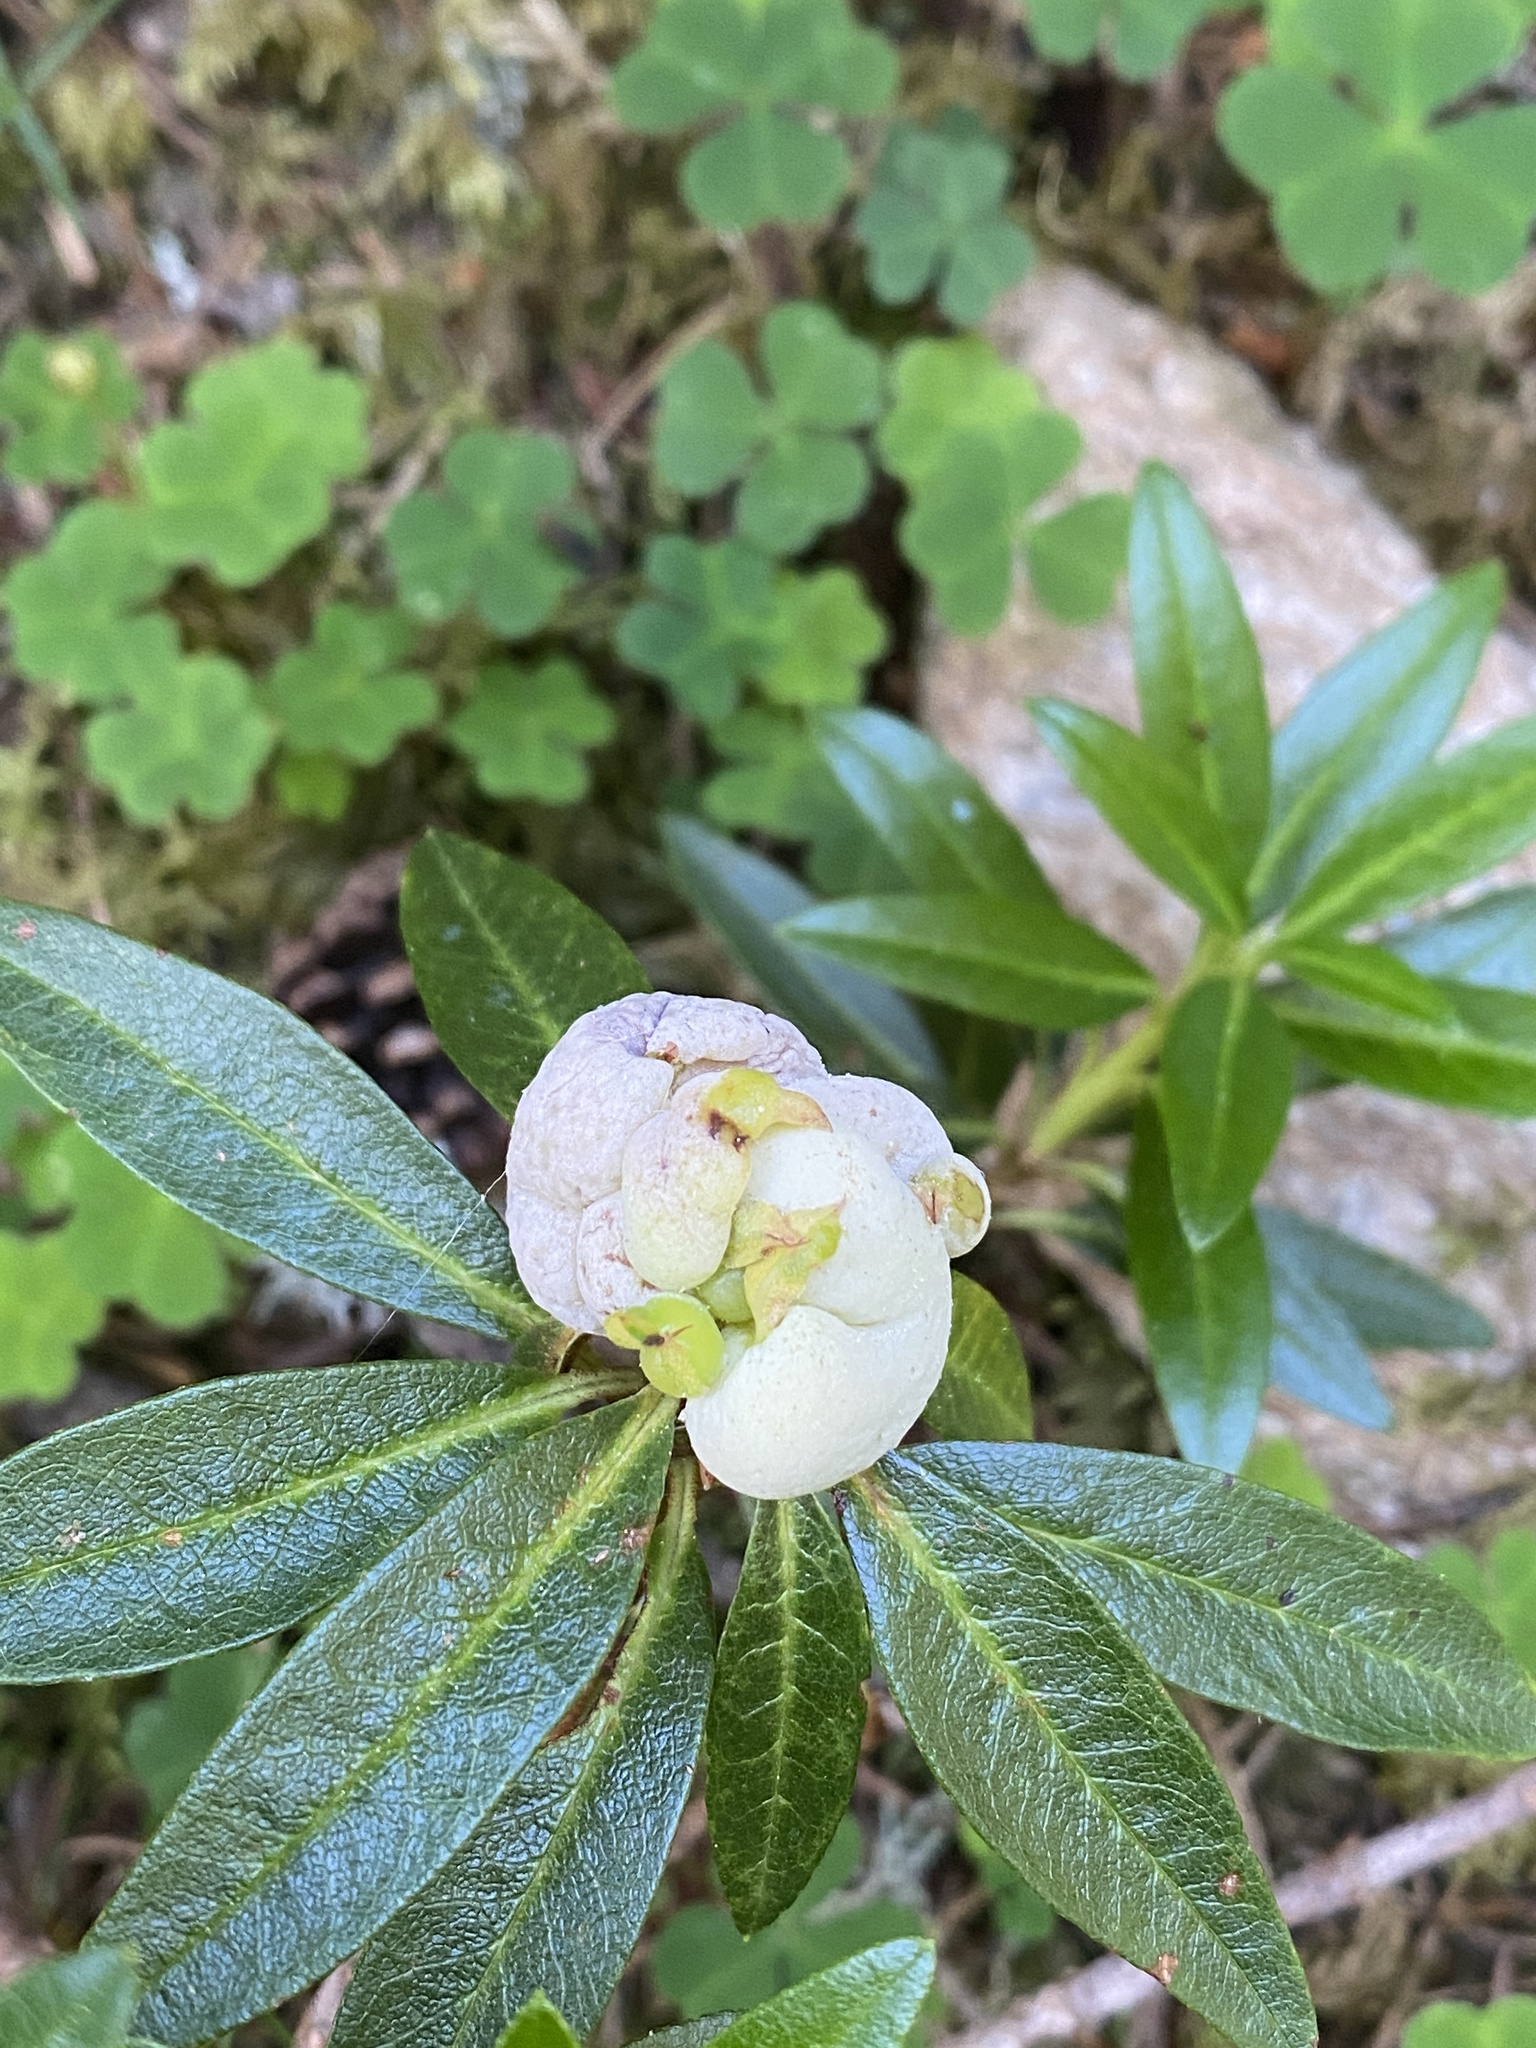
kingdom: Fungi
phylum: Basidiomycota
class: Exobasidiomycetes
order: Exobasidiales
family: Exobasidiaceae
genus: Exobasidium
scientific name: Exobasidium rhododendri
